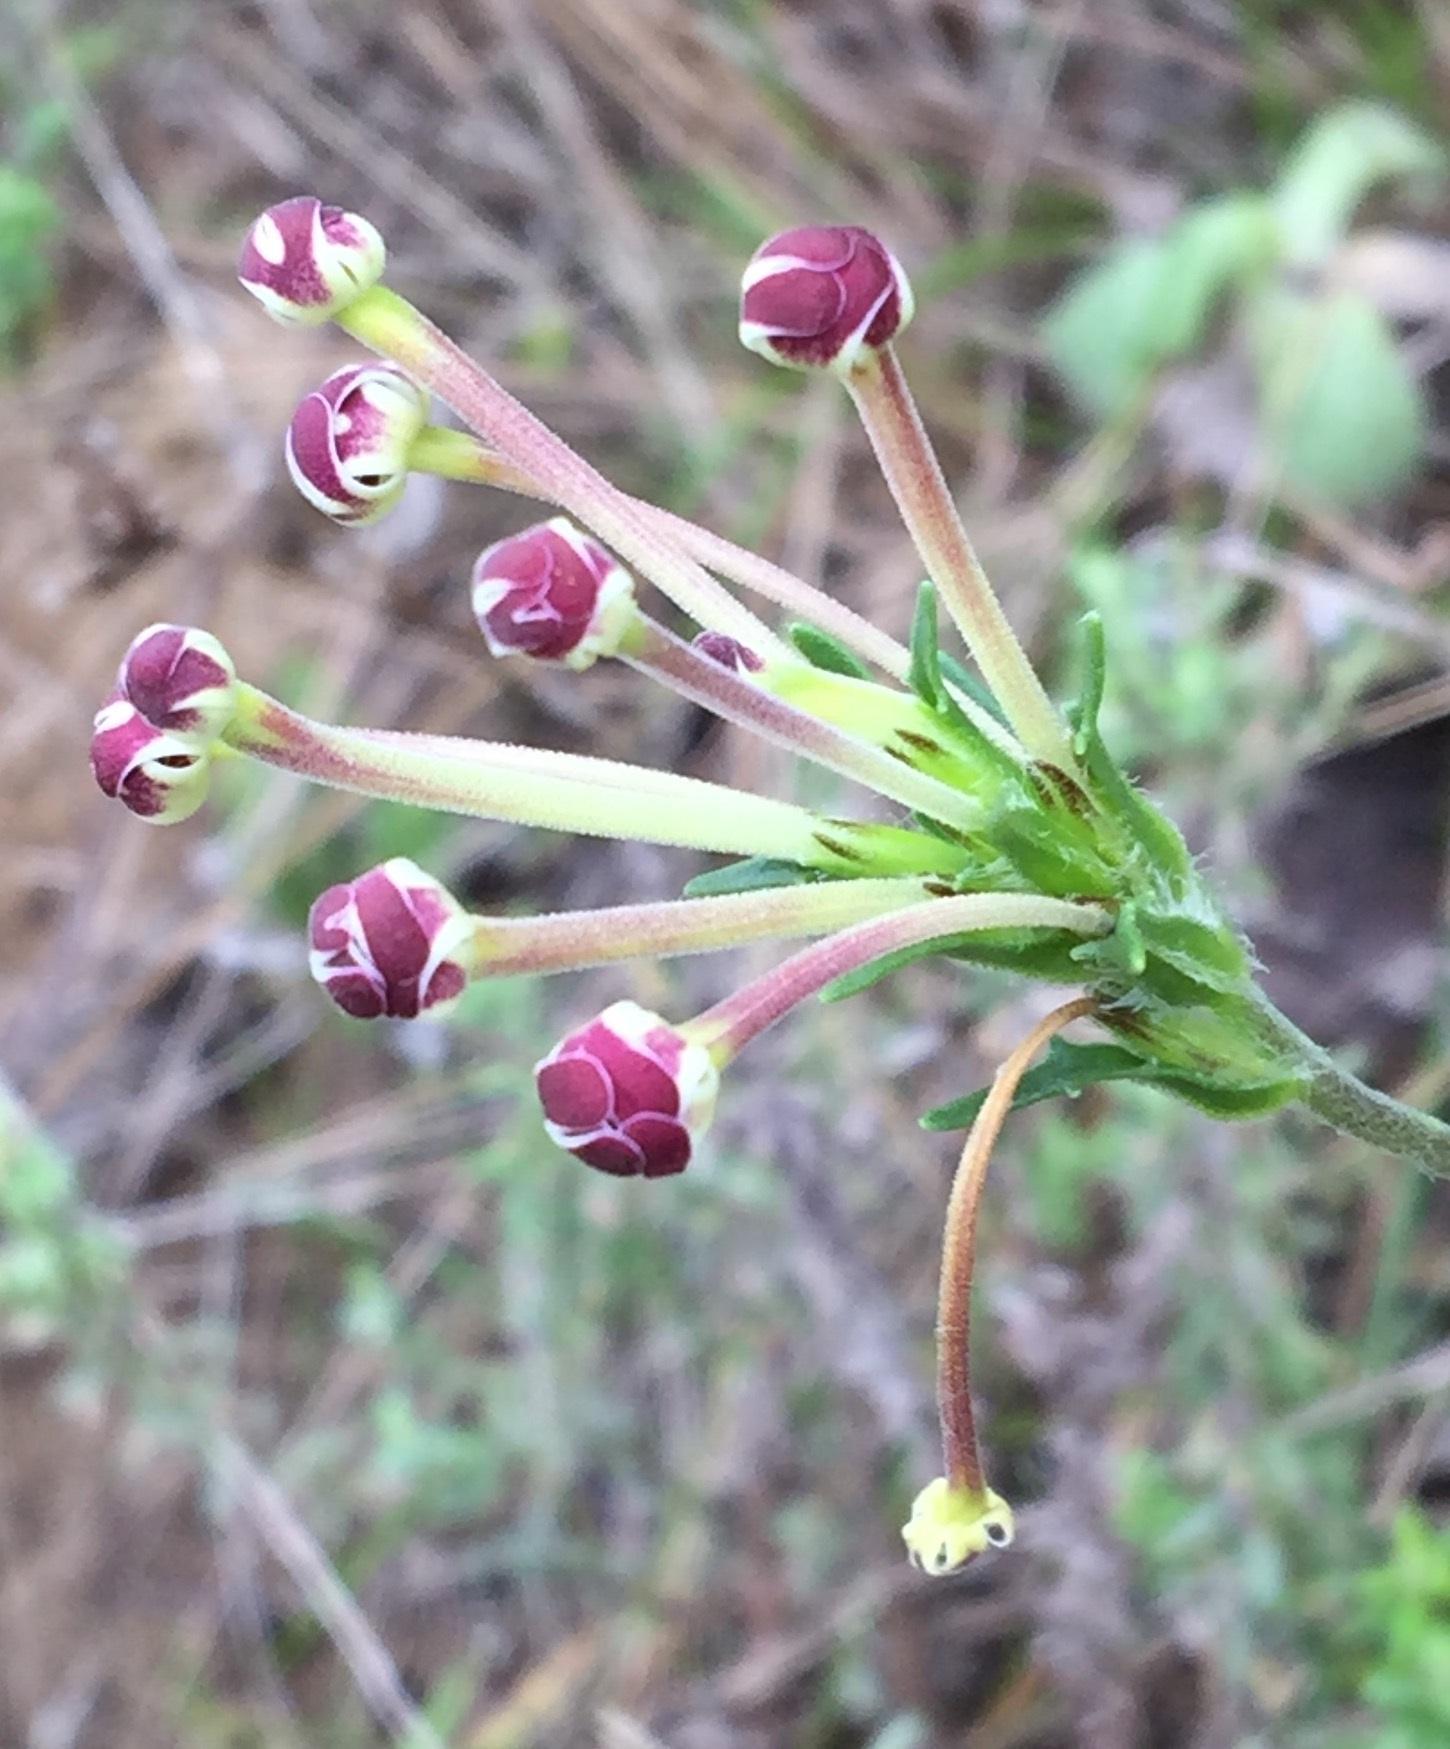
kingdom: Plantae
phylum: Tracheophyta
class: Magnoliopsida
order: Lamiales
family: Scrophulariaceae
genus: Zaluzianskya
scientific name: Zaluzianskya capensis
